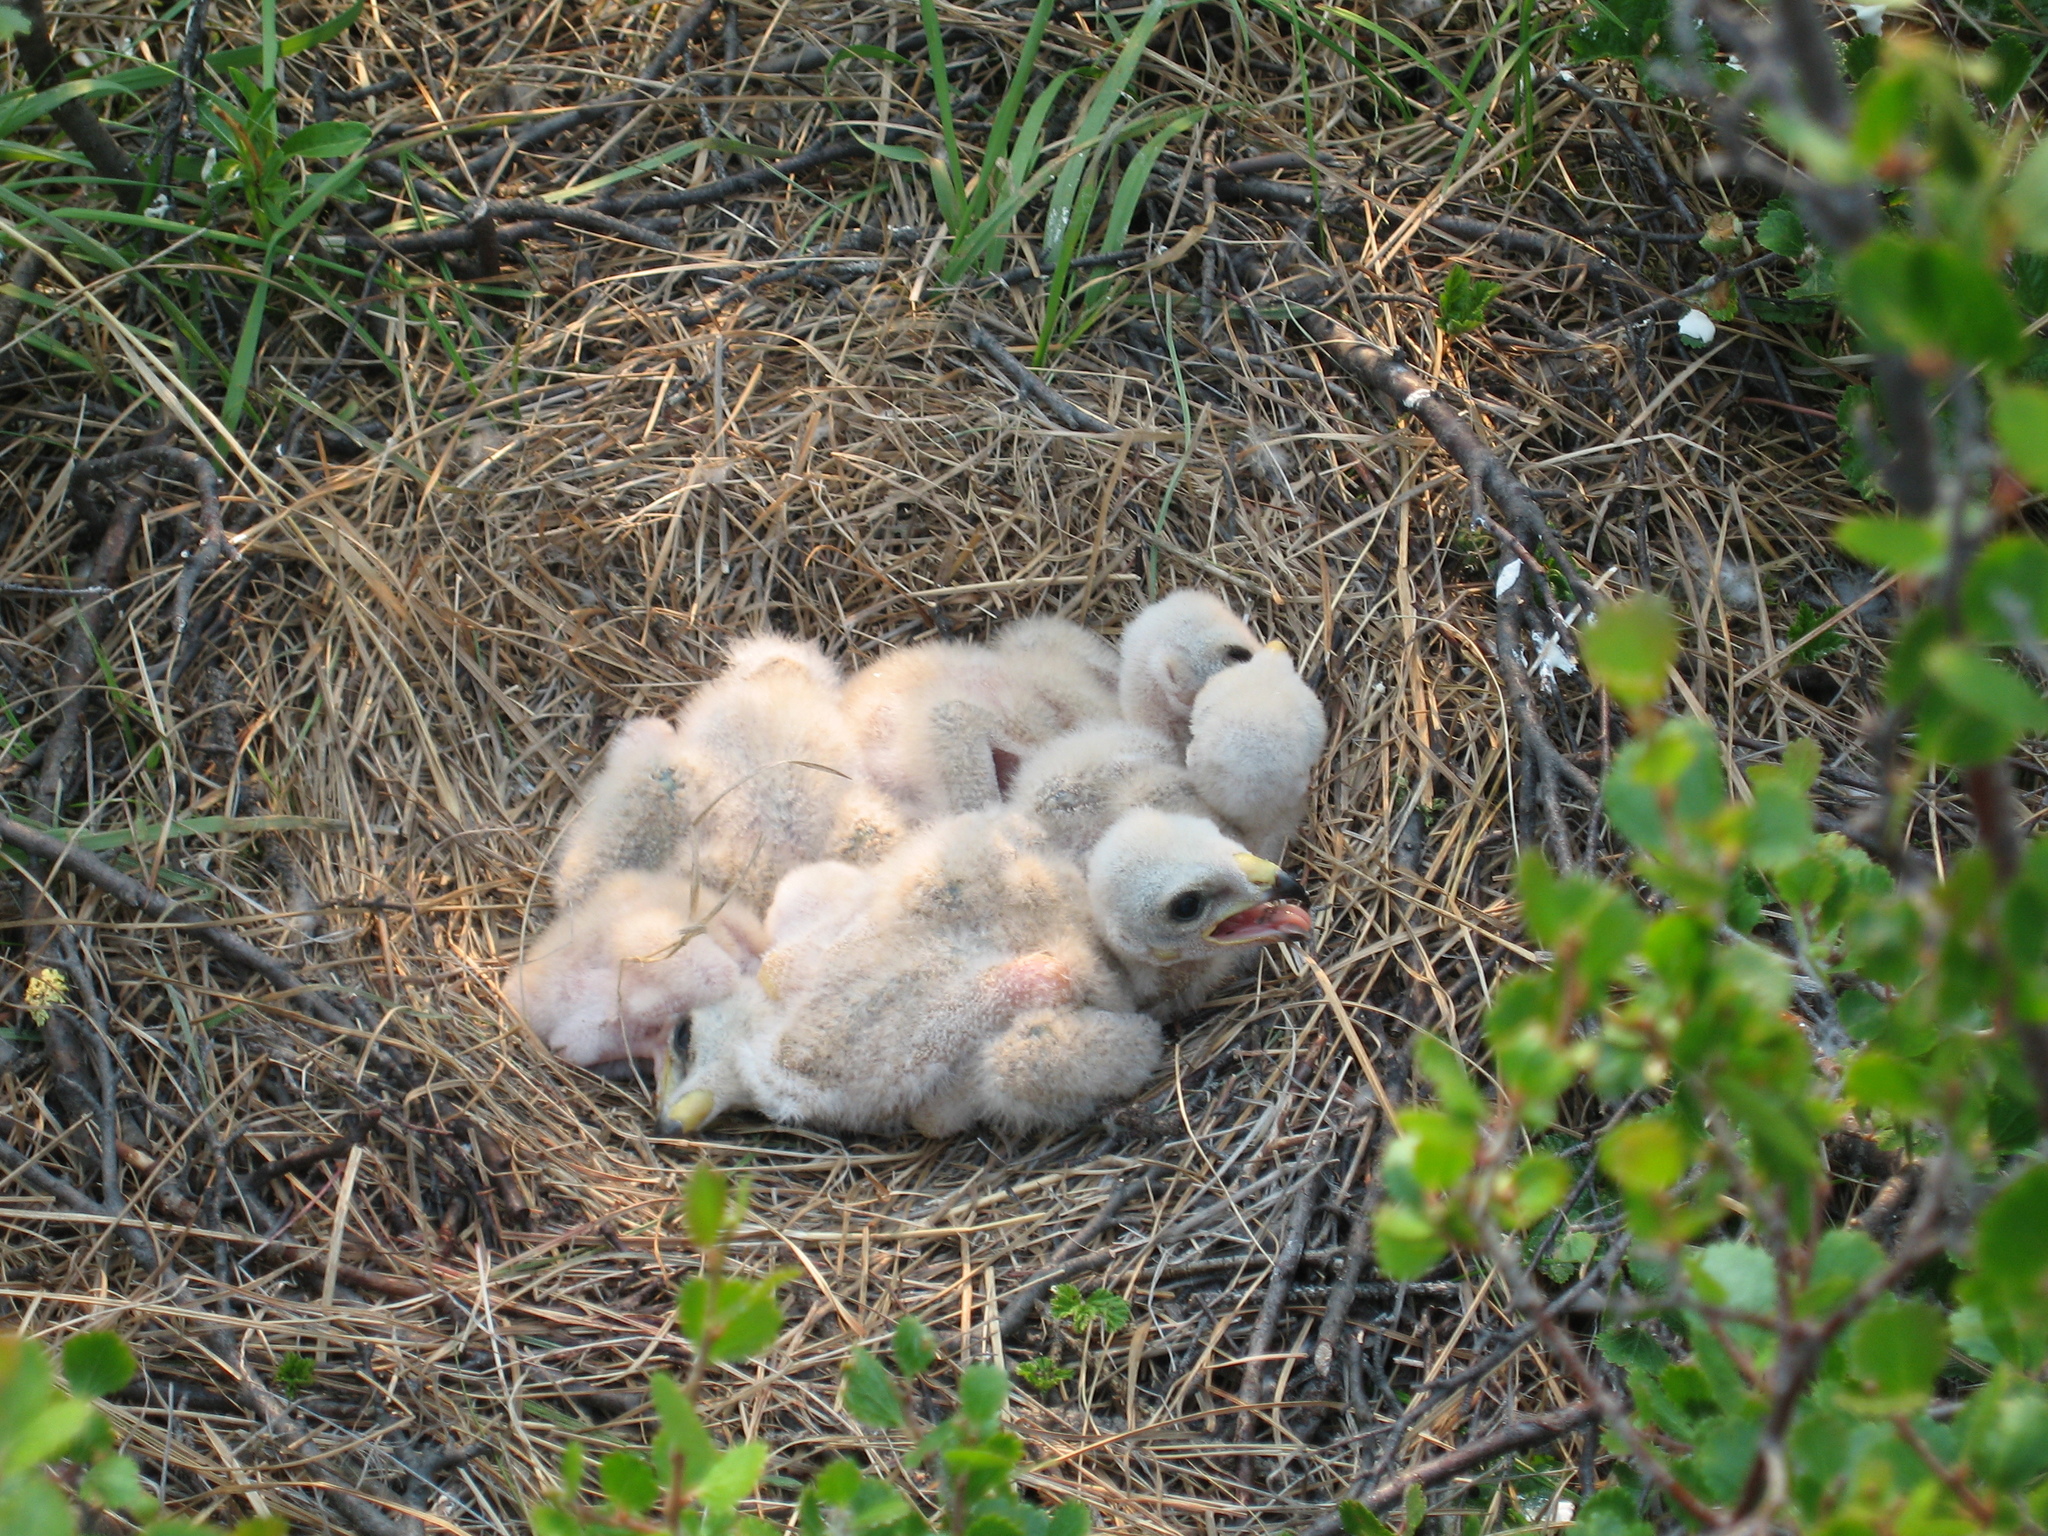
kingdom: Animalia
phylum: Chordata
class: Aves
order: Accipitriformes
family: Accipitridae
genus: Circus
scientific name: Circus cyaneus
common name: Hen harrier
